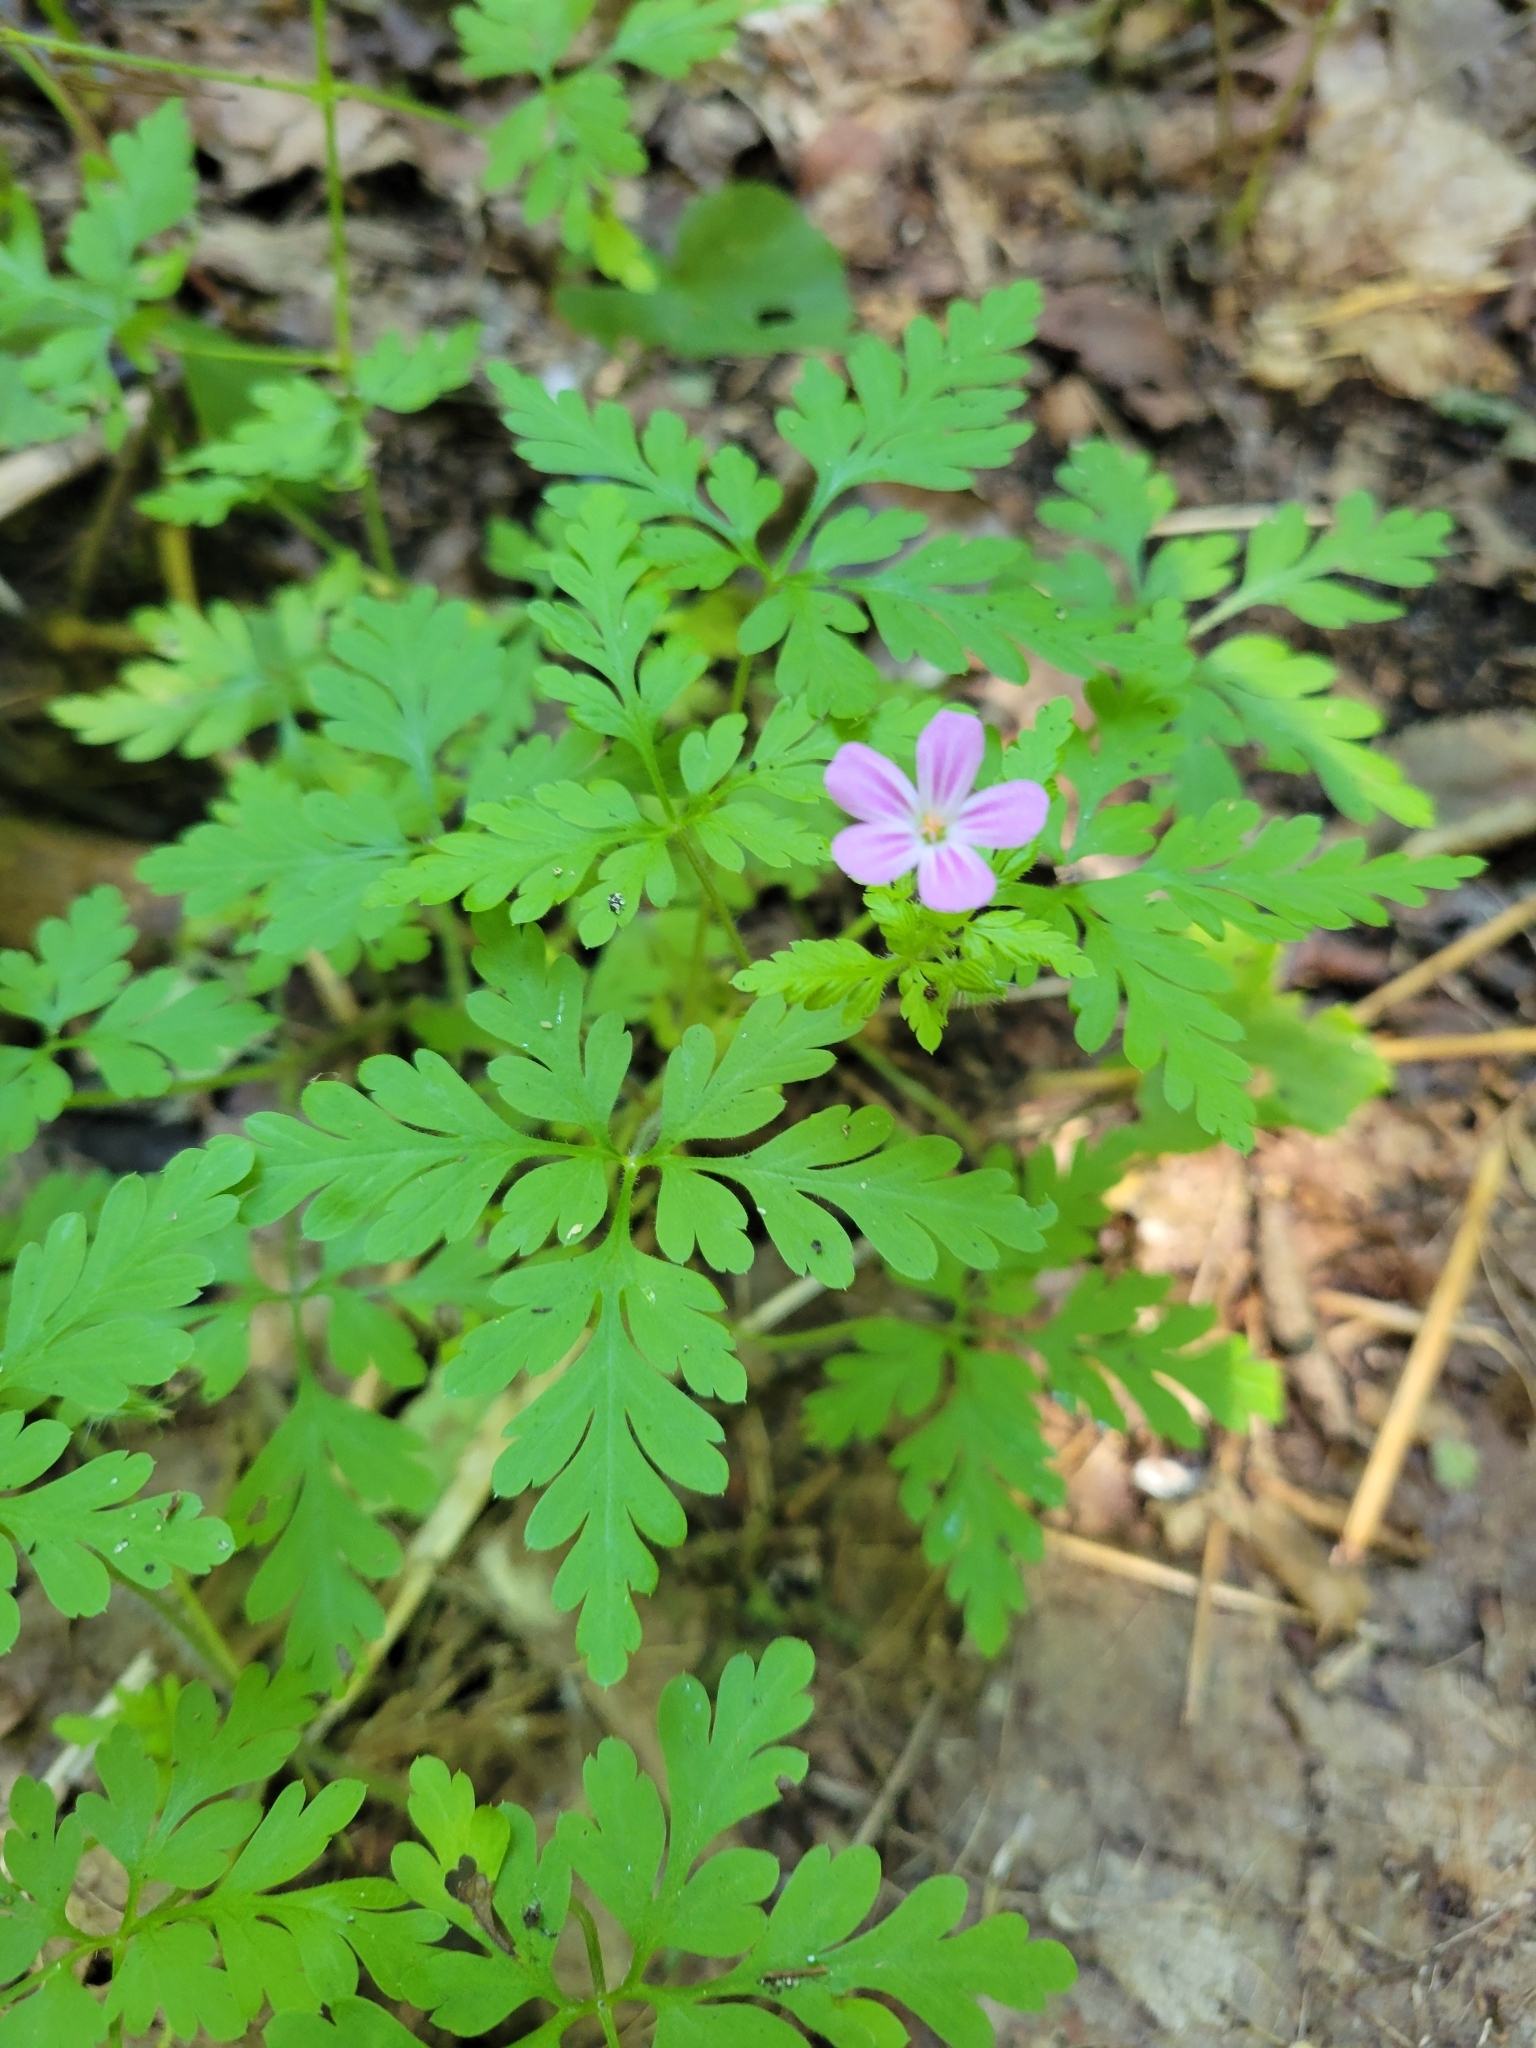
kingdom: Plantae
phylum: Tracheophyta
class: Magnoliopsida
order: Geraniales
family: Geraniaceae
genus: Geranium
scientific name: Geranium robertianum
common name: Herb-robert
